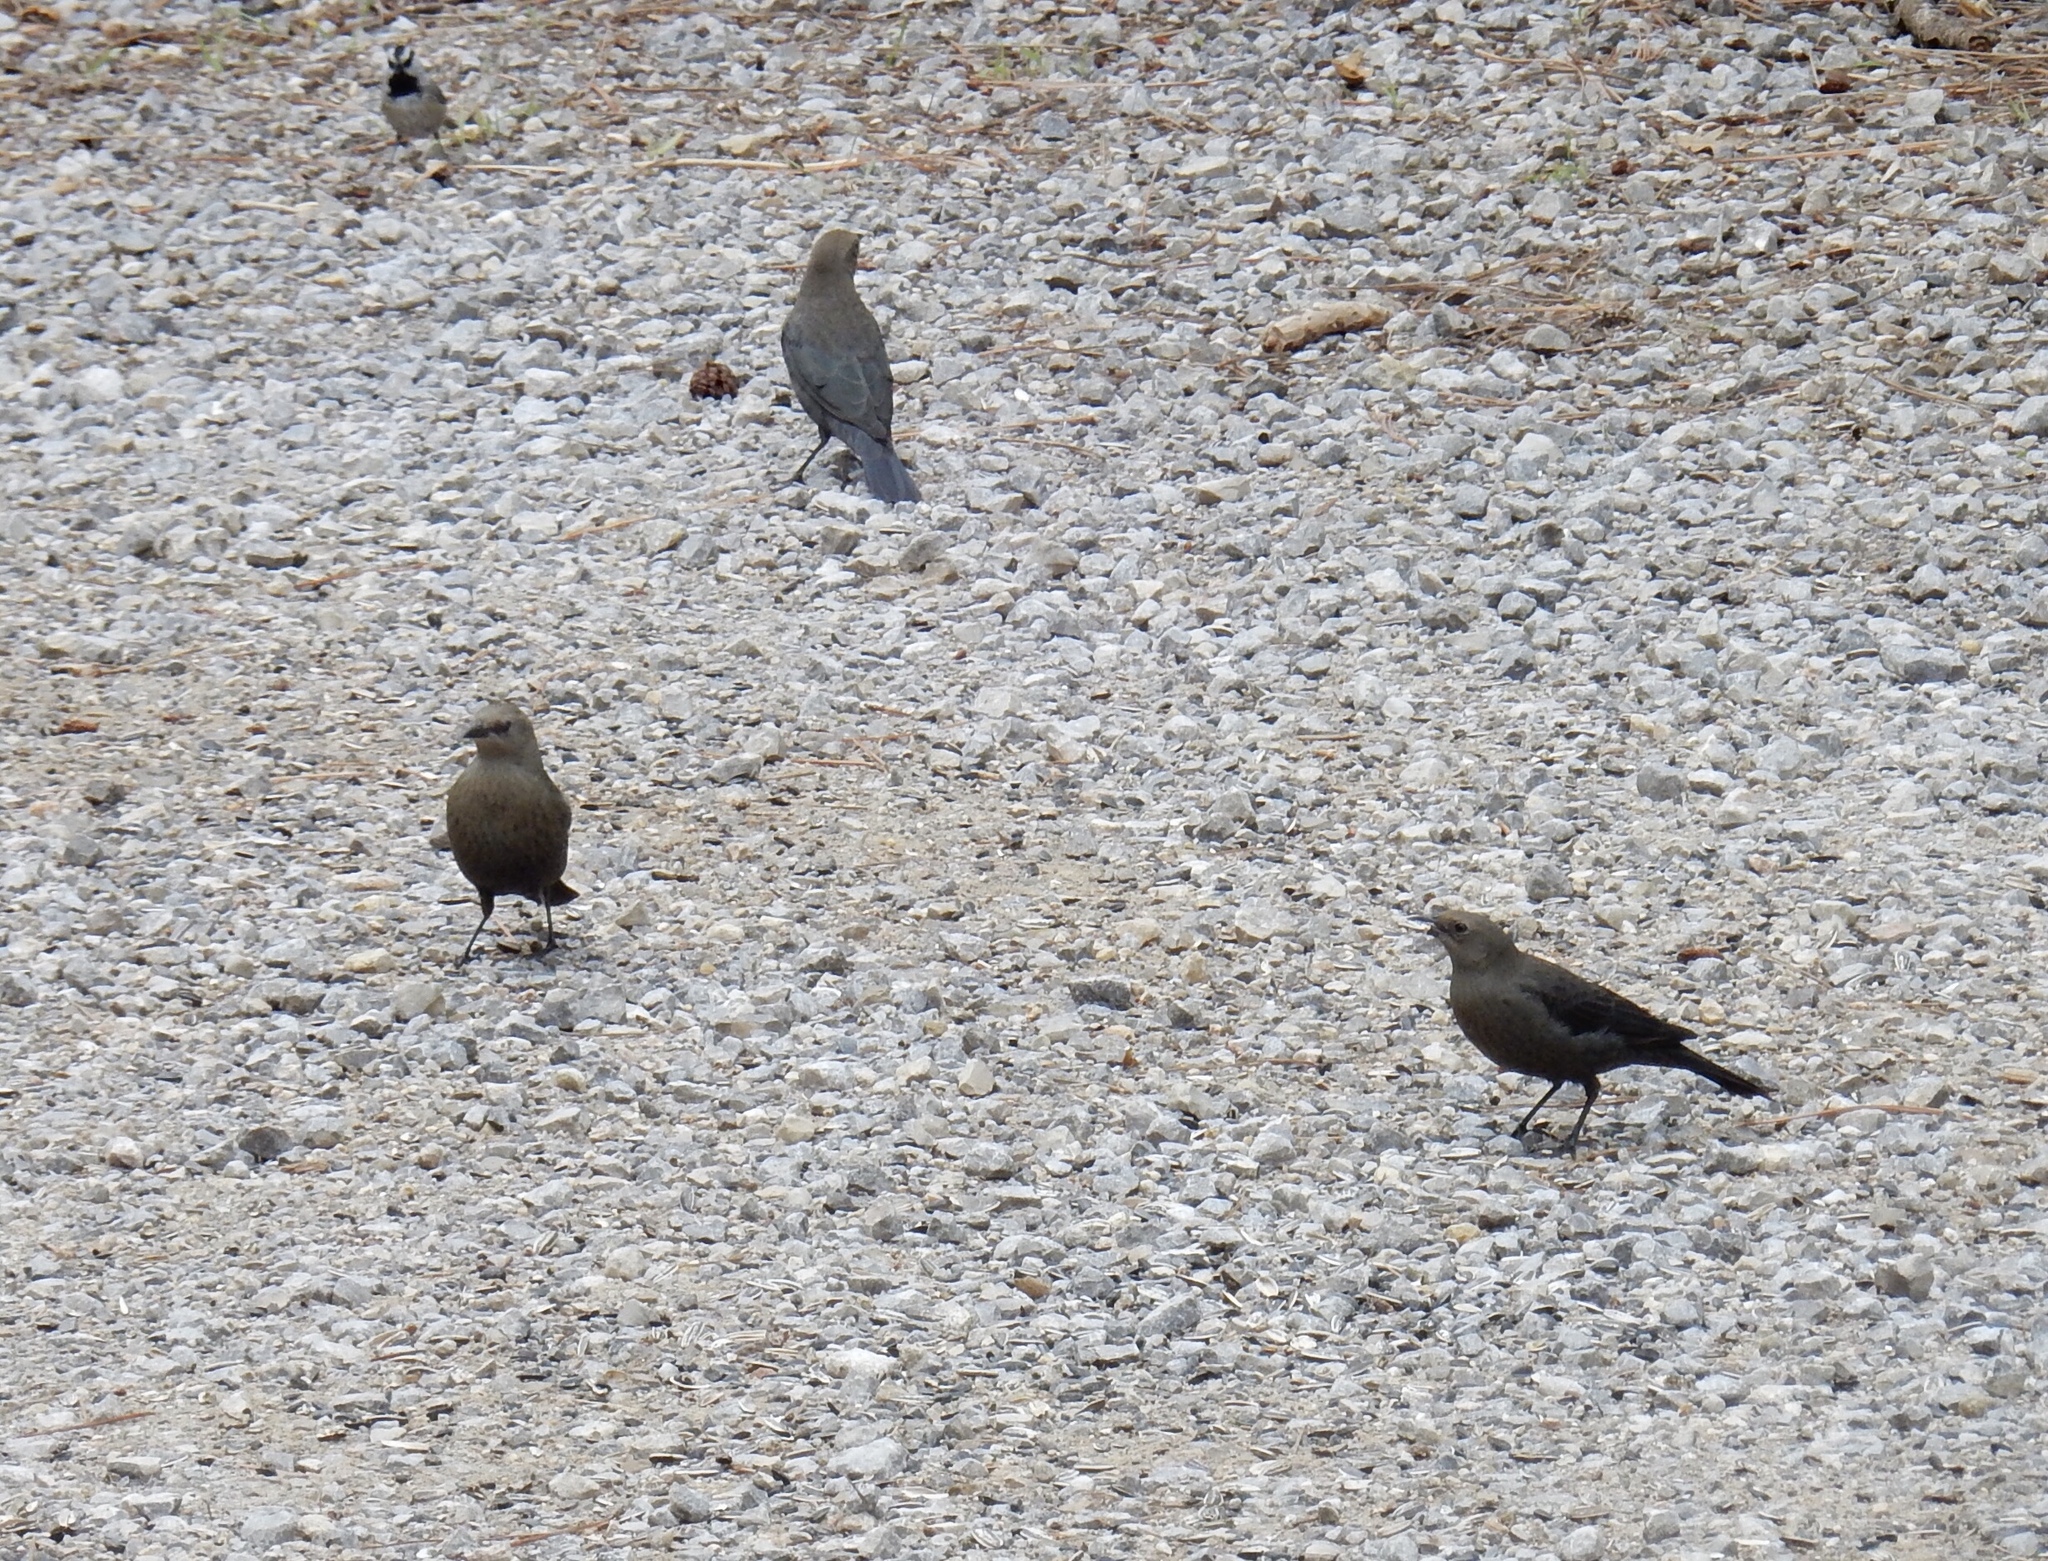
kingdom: Animalia
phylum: Chordata
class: Aves
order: Passeriformes
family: Icteridae
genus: Euphagus
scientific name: Euphagus cyanocephalus
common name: Brewer's blackbird
